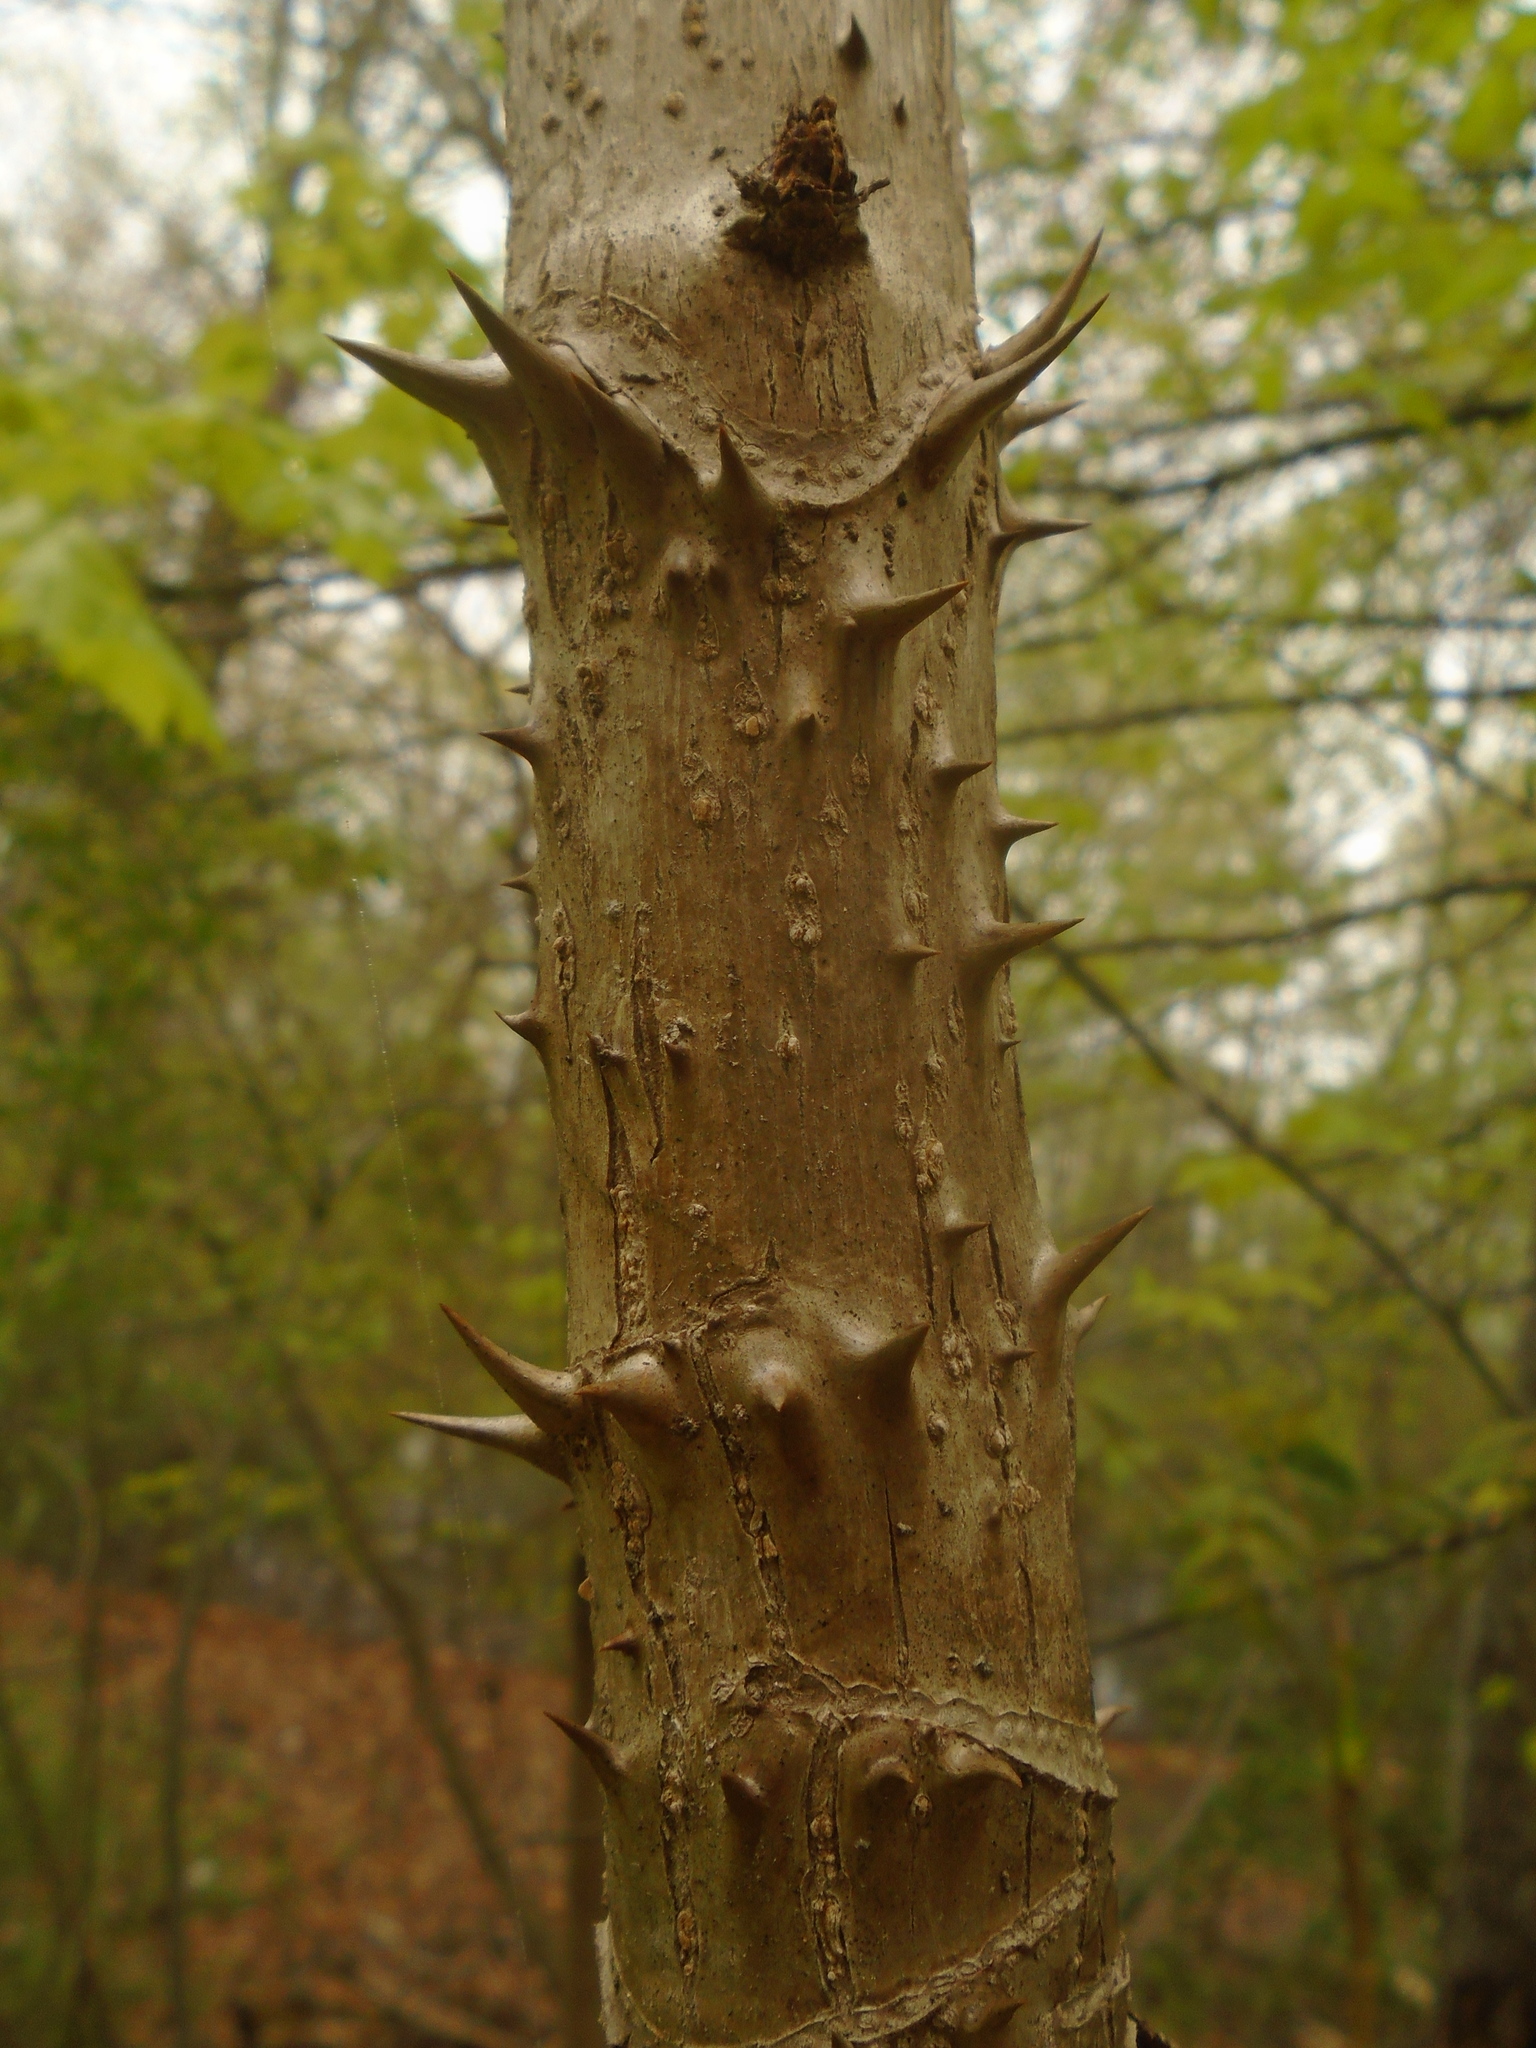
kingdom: Plantae
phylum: Tracheophyta
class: Magnoliopsida
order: Apiales
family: Araliaceae
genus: Aralia
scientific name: Aralia spinosa
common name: Hercules'-club
